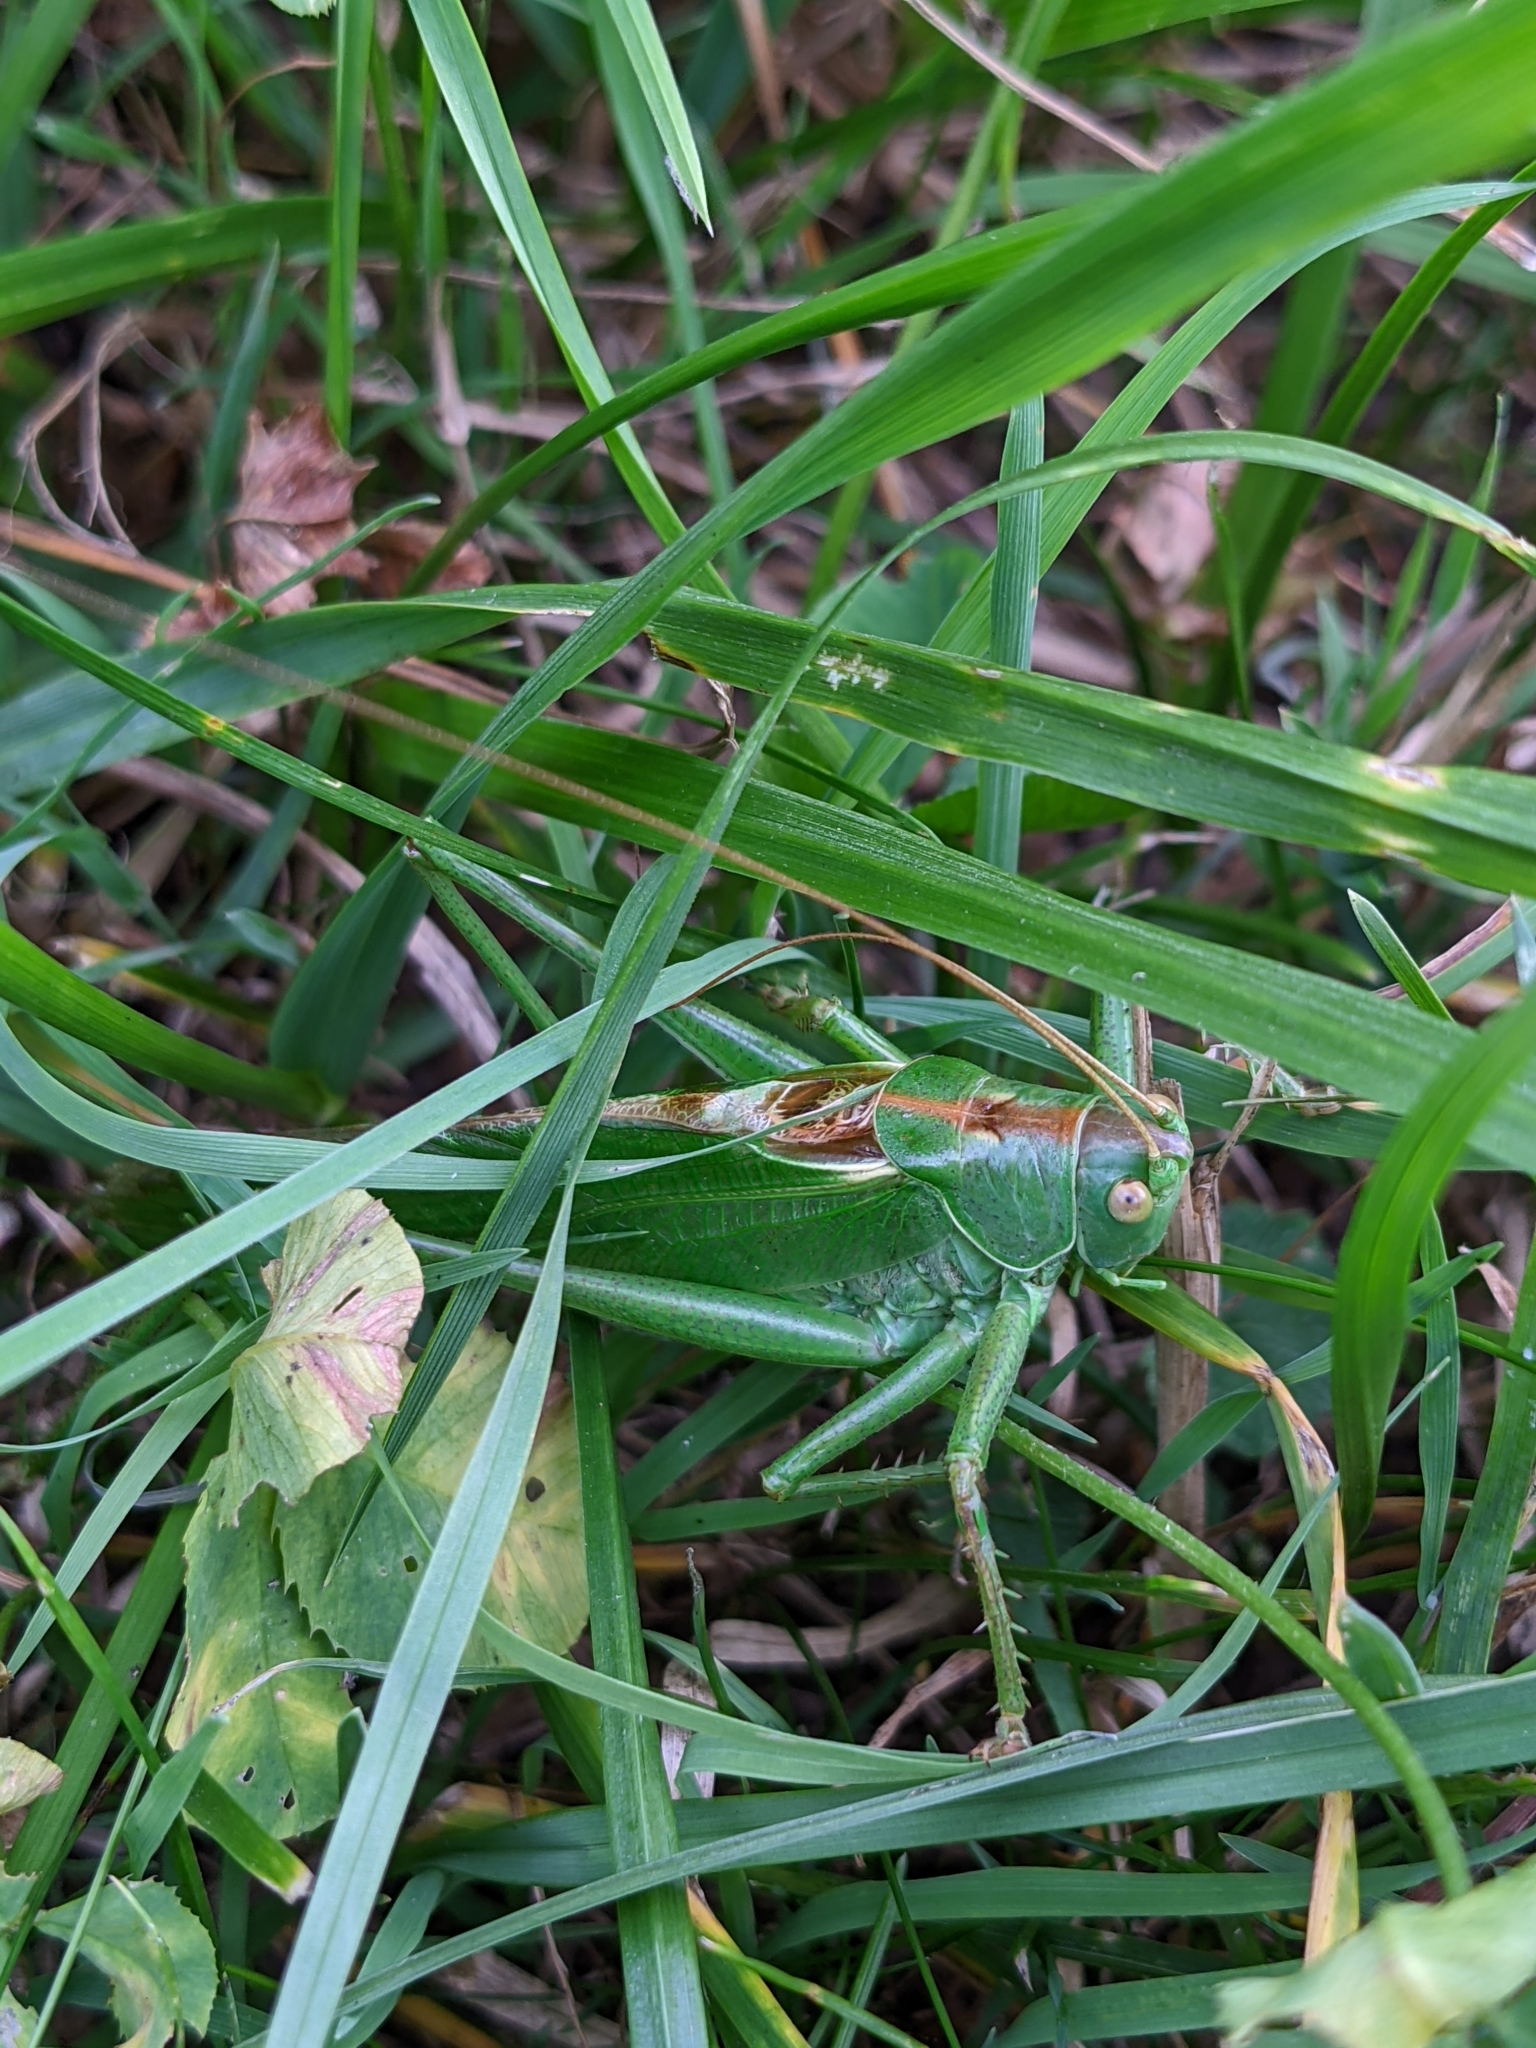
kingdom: Animalia
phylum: Arthropoda
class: Insecta
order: Orthoptera
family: Tettigoniidae
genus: Tettigonia
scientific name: Tettigonia viridissima
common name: Great green bush-cricket
